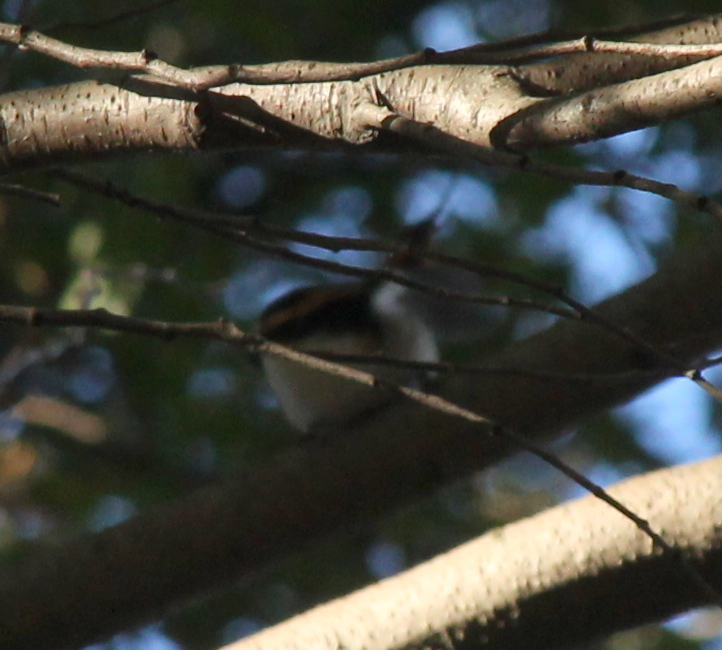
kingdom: Animalia
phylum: Chordata
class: Aves
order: Passeriformes
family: Furnariidae
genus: Aphrastura
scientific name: Aphrastura spinicauda
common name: Thorn-tailed rayadito
